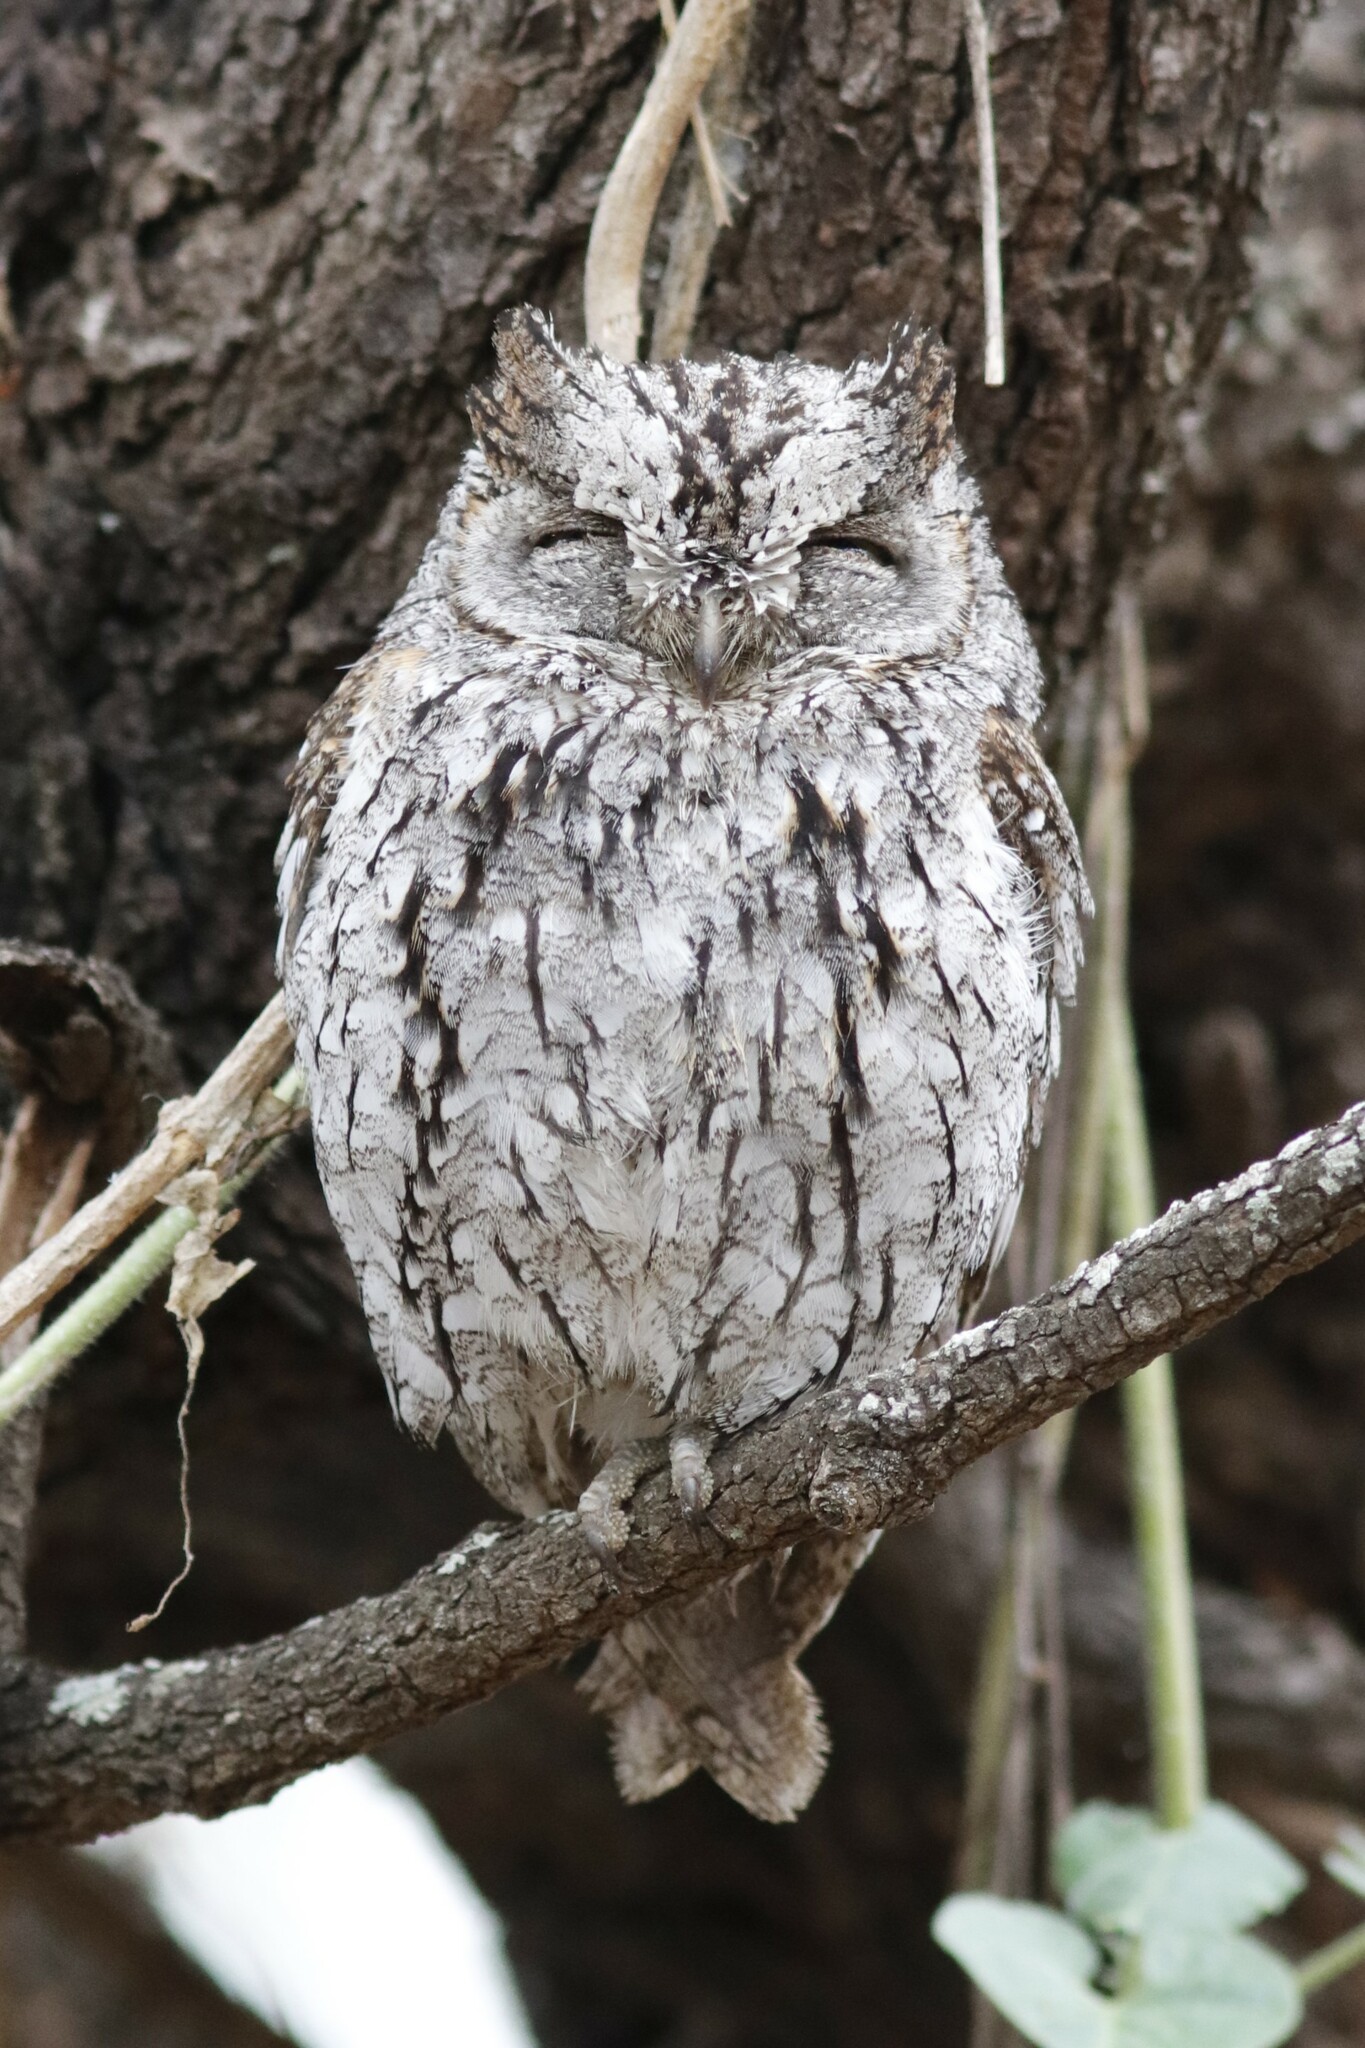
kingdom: Animalia
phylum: Chordata
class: Aves
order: Strigiformes
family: Strigidae
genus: Otus
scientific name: Otus senegalensis
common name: African scops owl
